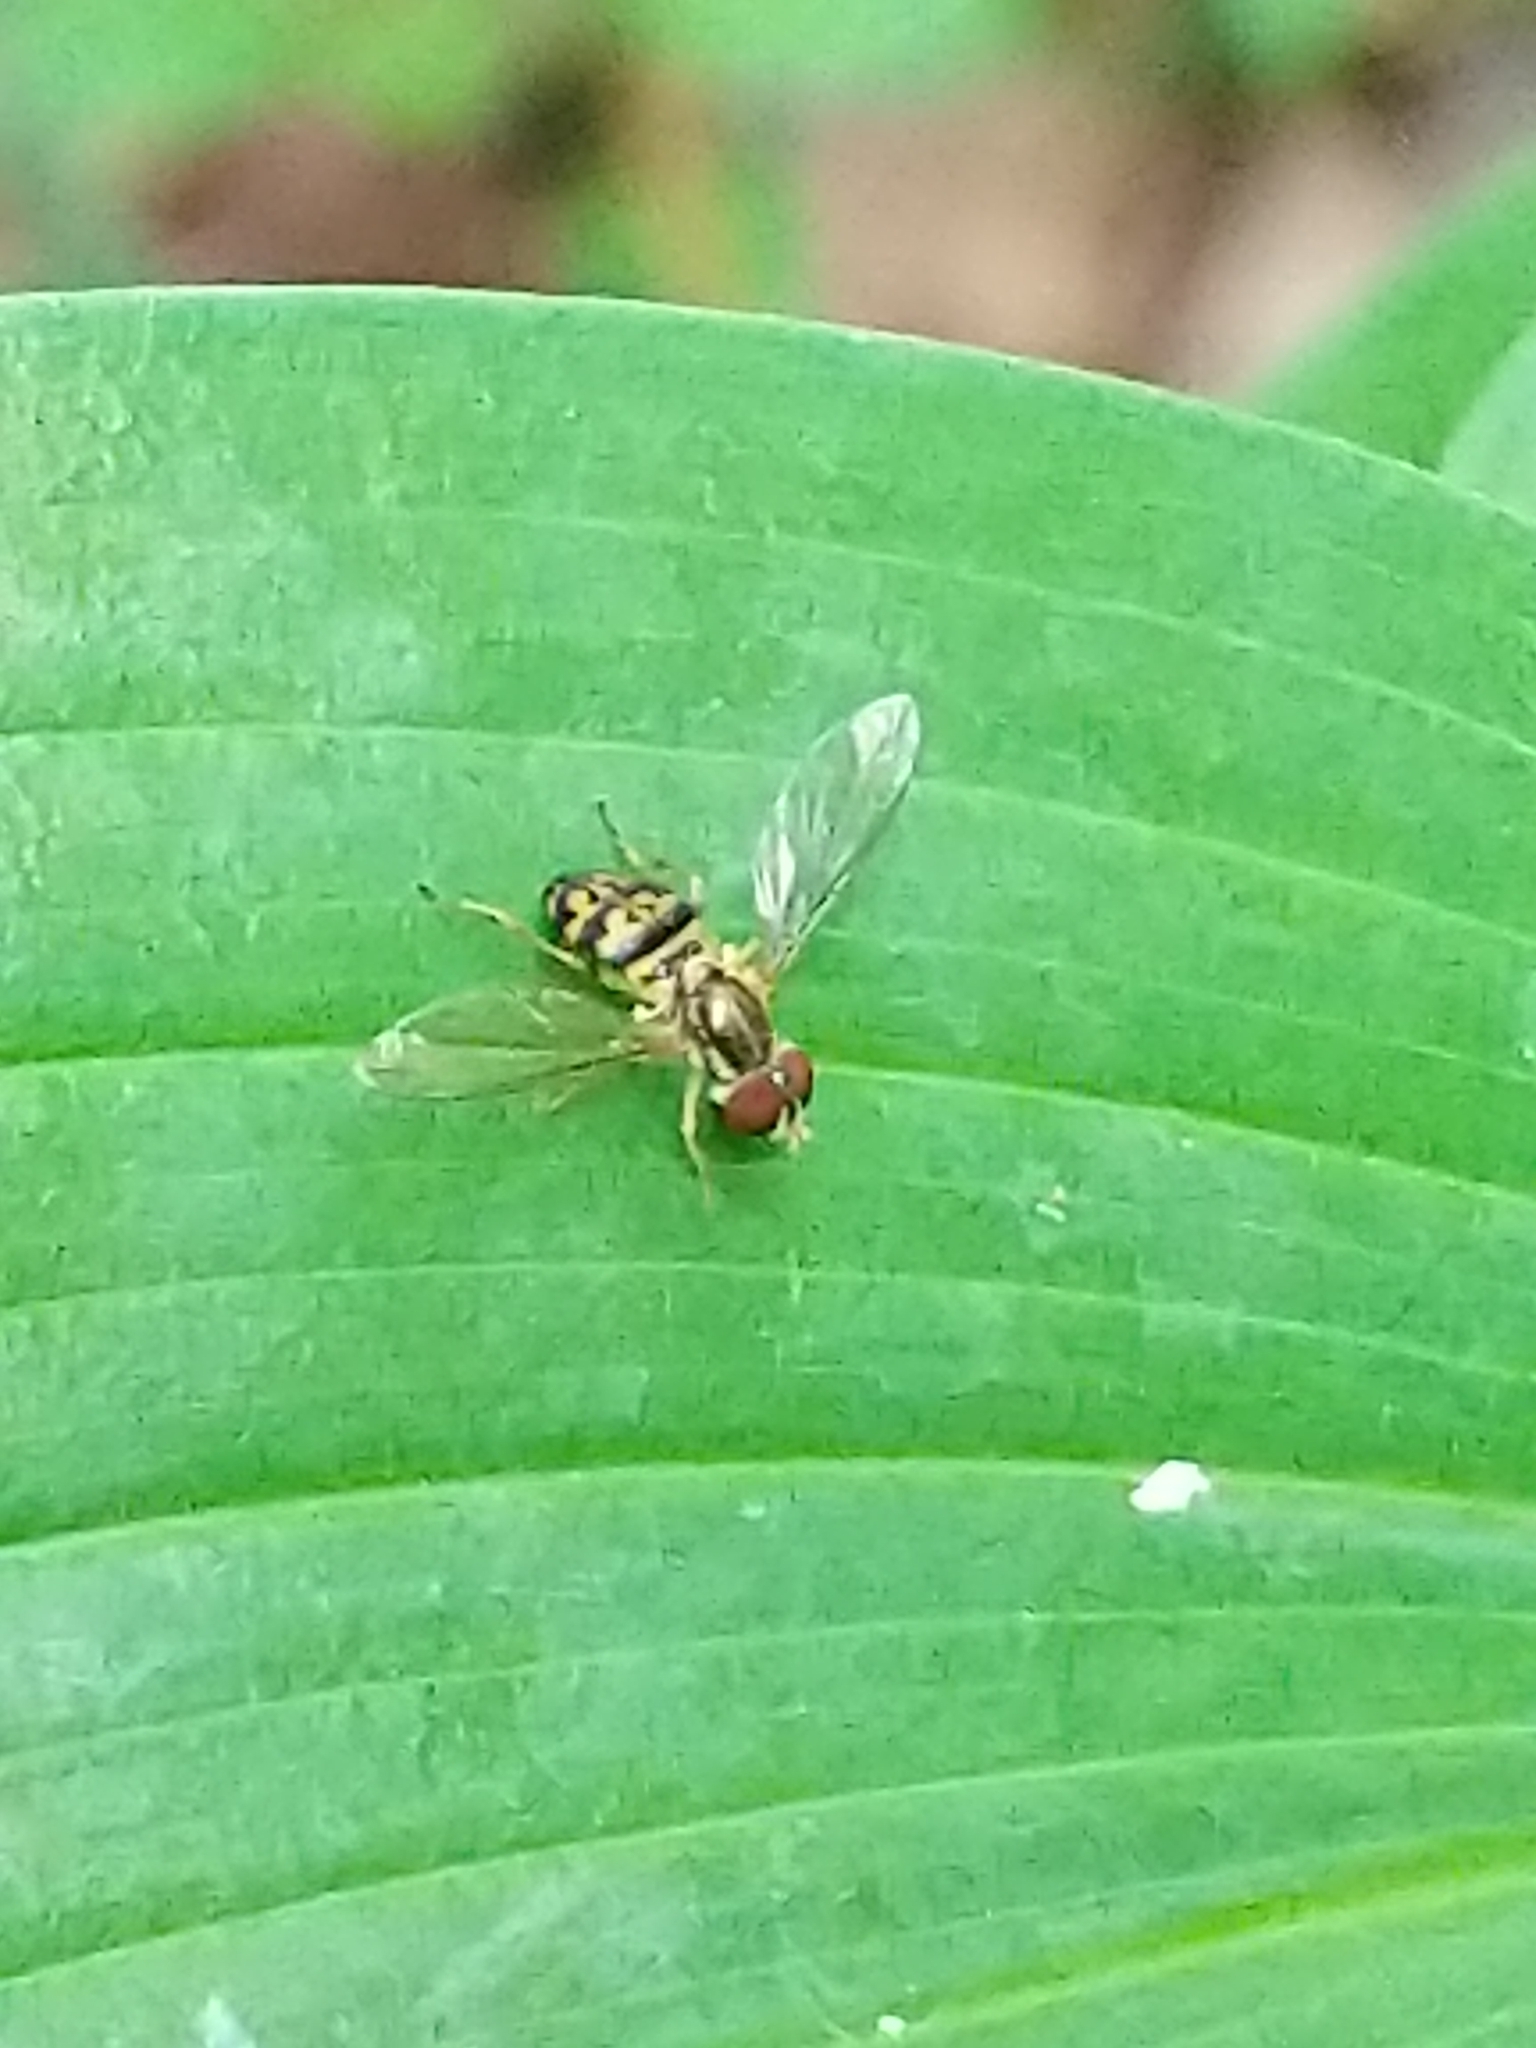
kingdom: Animalia
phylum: Arthropoda
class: Insecta
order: Diptera
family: Syrphidae
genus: Toxomerus
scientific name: Toxomerus geminatus
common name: Eastern calligrapher
